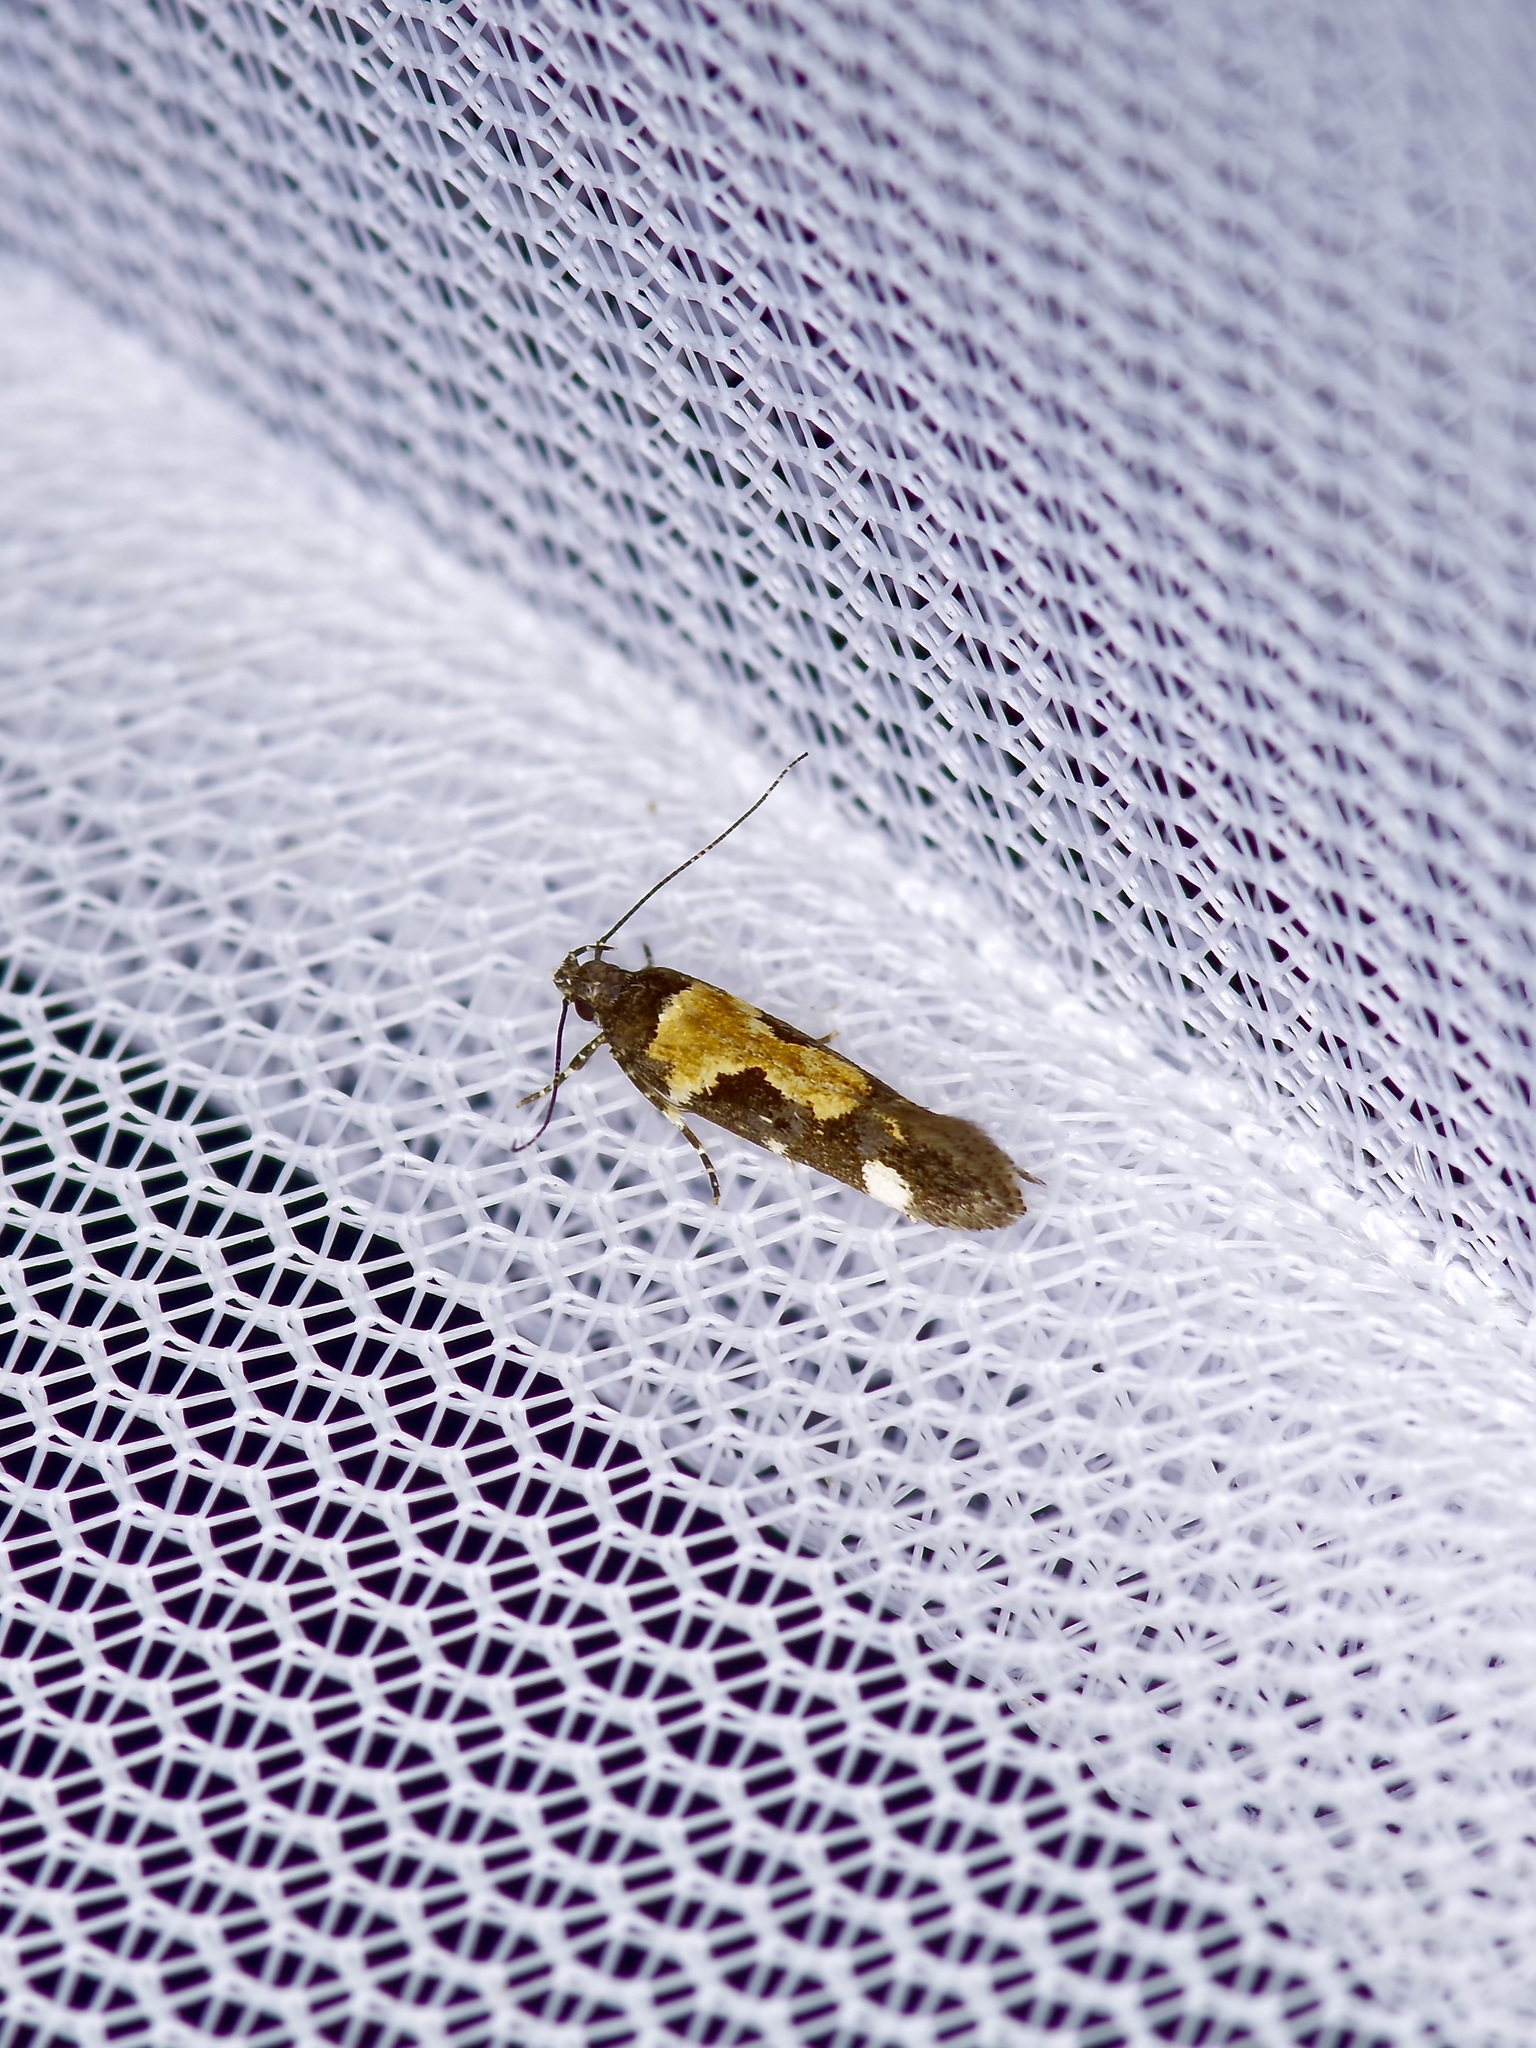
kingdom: Animalia
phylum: Arthropoda
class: Insecta
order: Lepidoptera
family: Gelechiidae
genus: Stegasta
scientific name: Stegasta bosqueella
